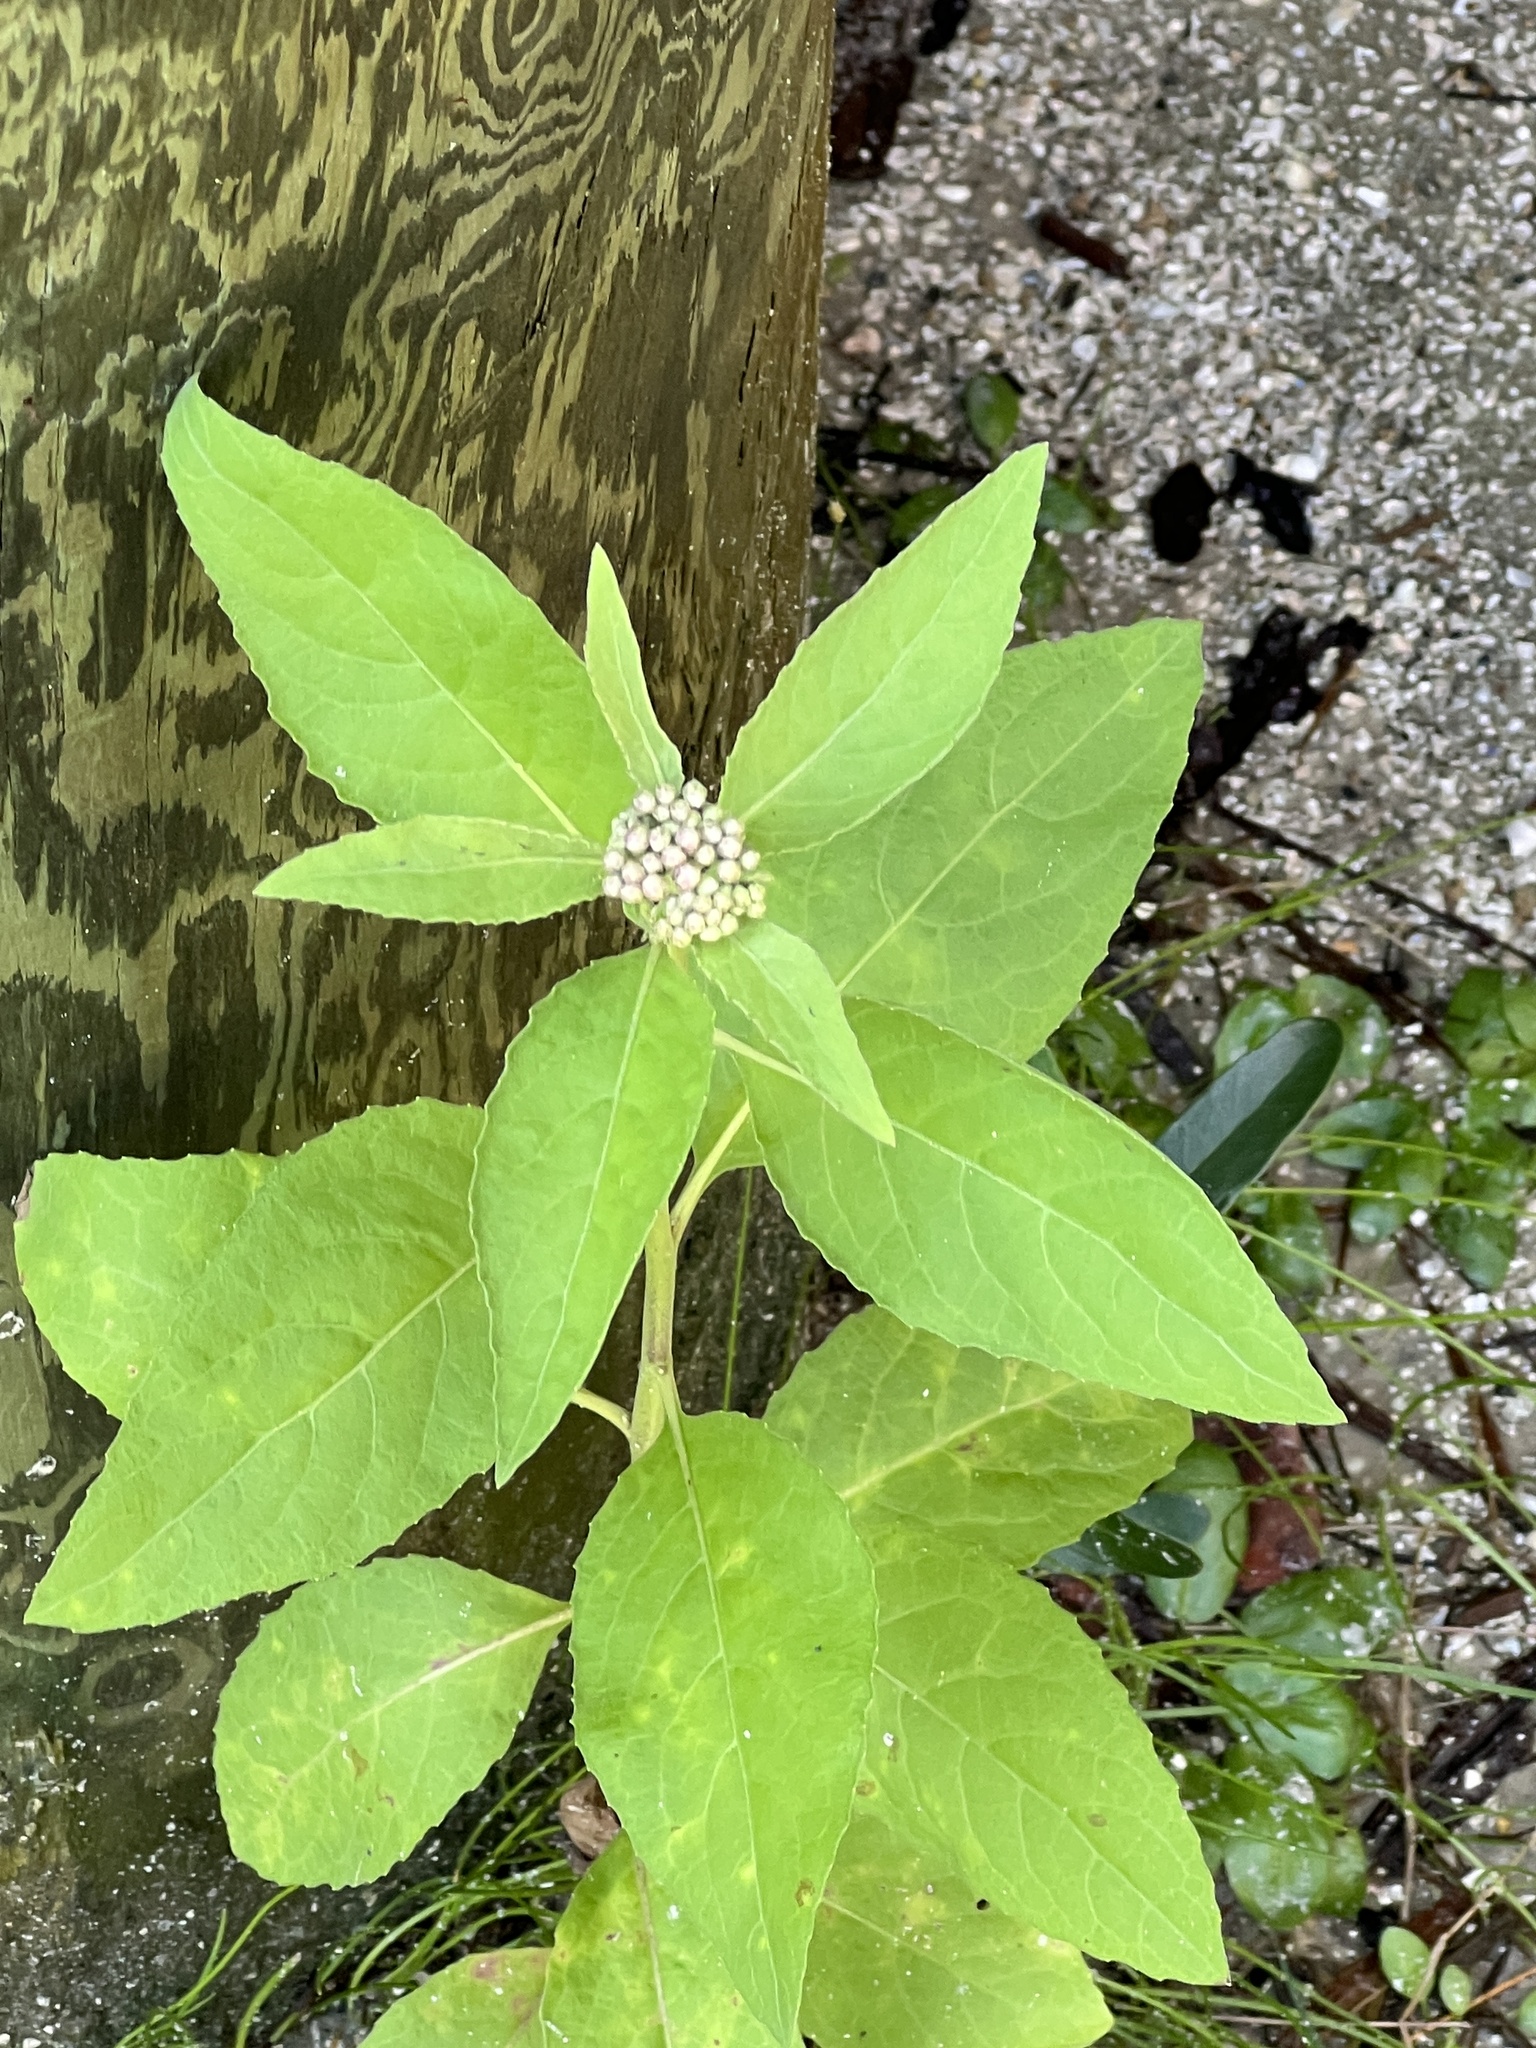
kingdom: Plantae
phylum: Tracheophyta
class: Magnoliopsida
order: Asterales
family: Asteraceae
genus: Pluchea
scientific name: Pluchea odorata
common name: Saltmarsh fleabane
